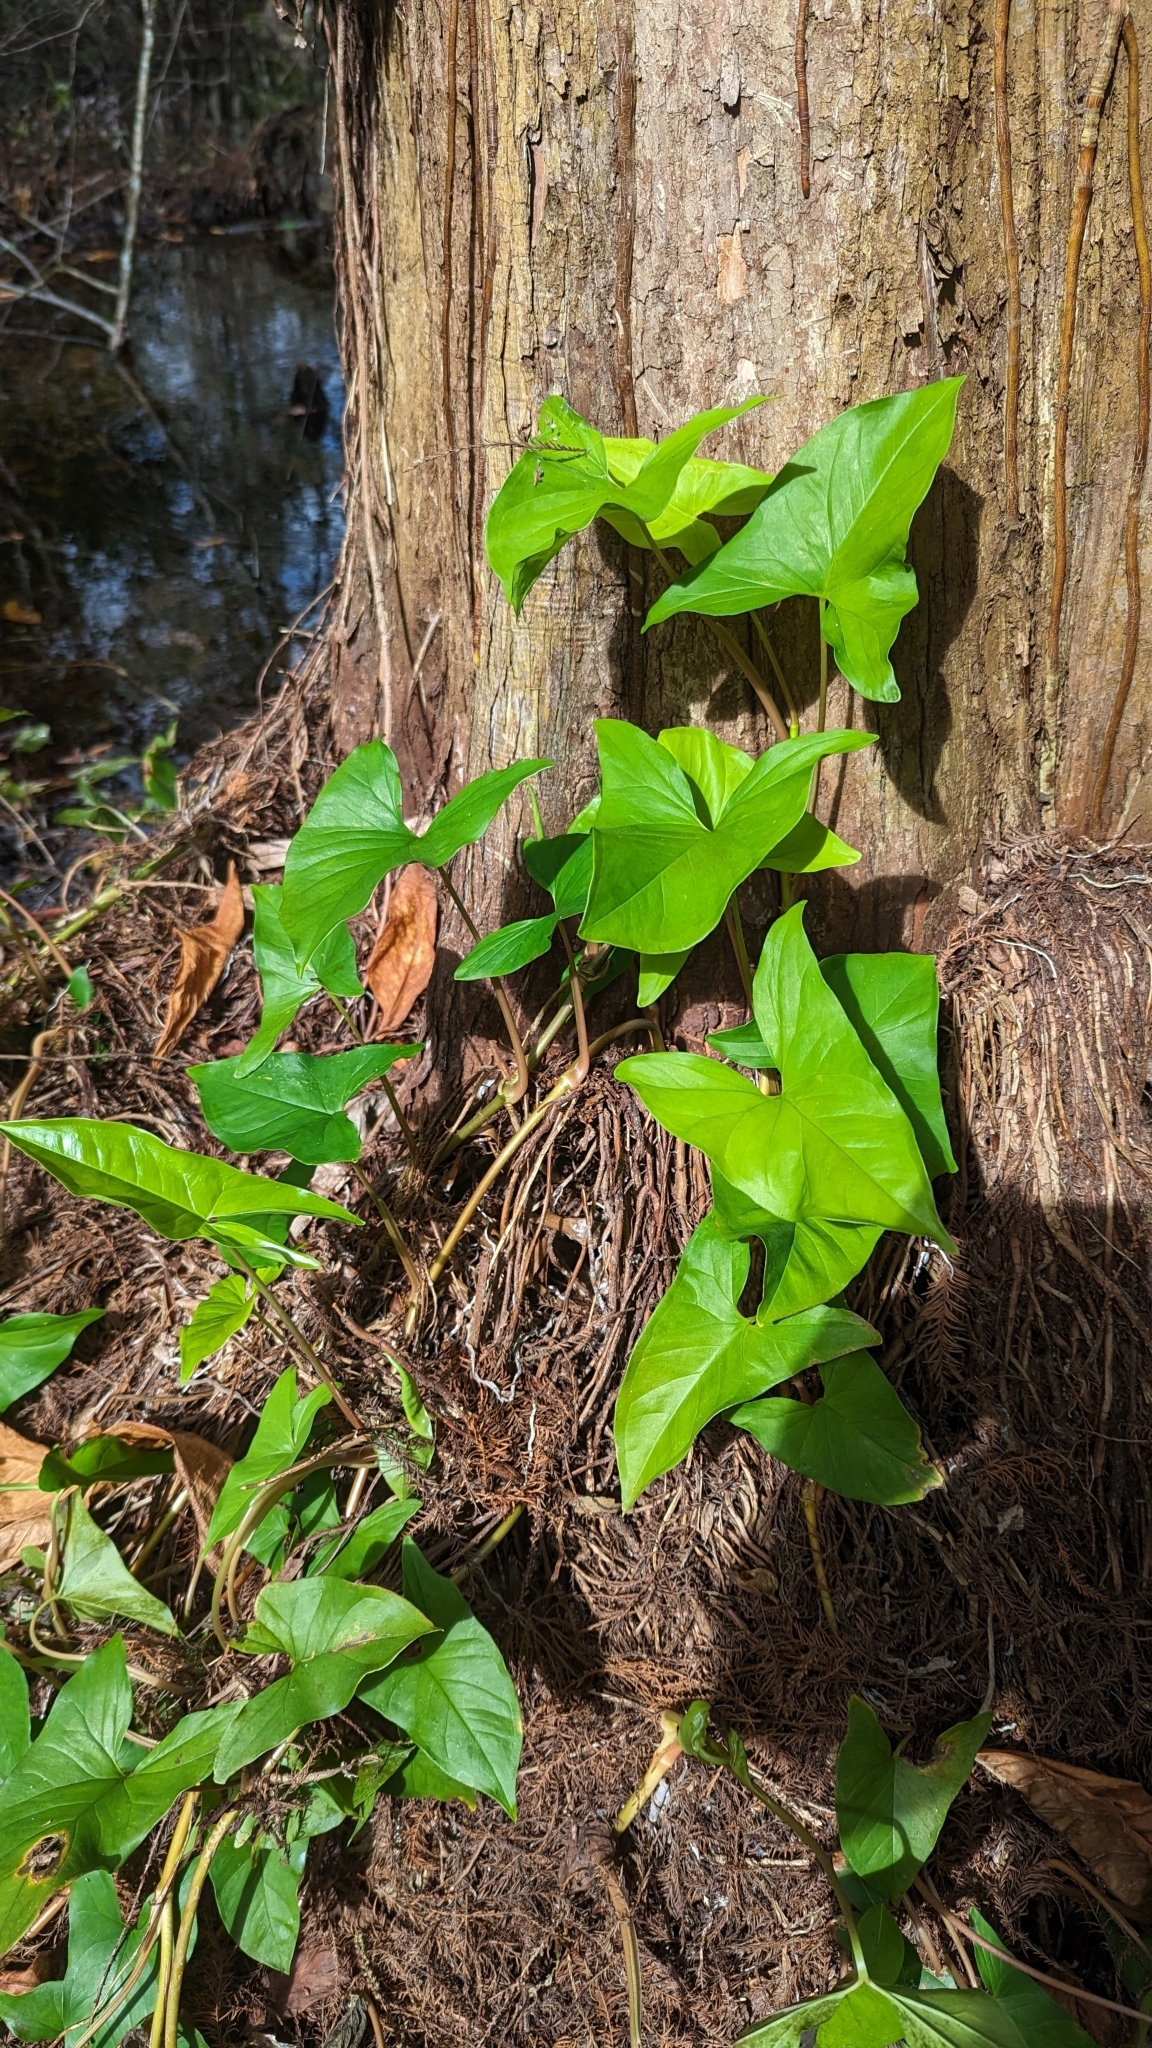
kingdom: Plantae
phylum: Tracheophyta
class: Liliopsida
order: Alismatales
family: Araceae
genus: Syngonium
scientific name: Syngonium podophyllum
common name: American evergreen
